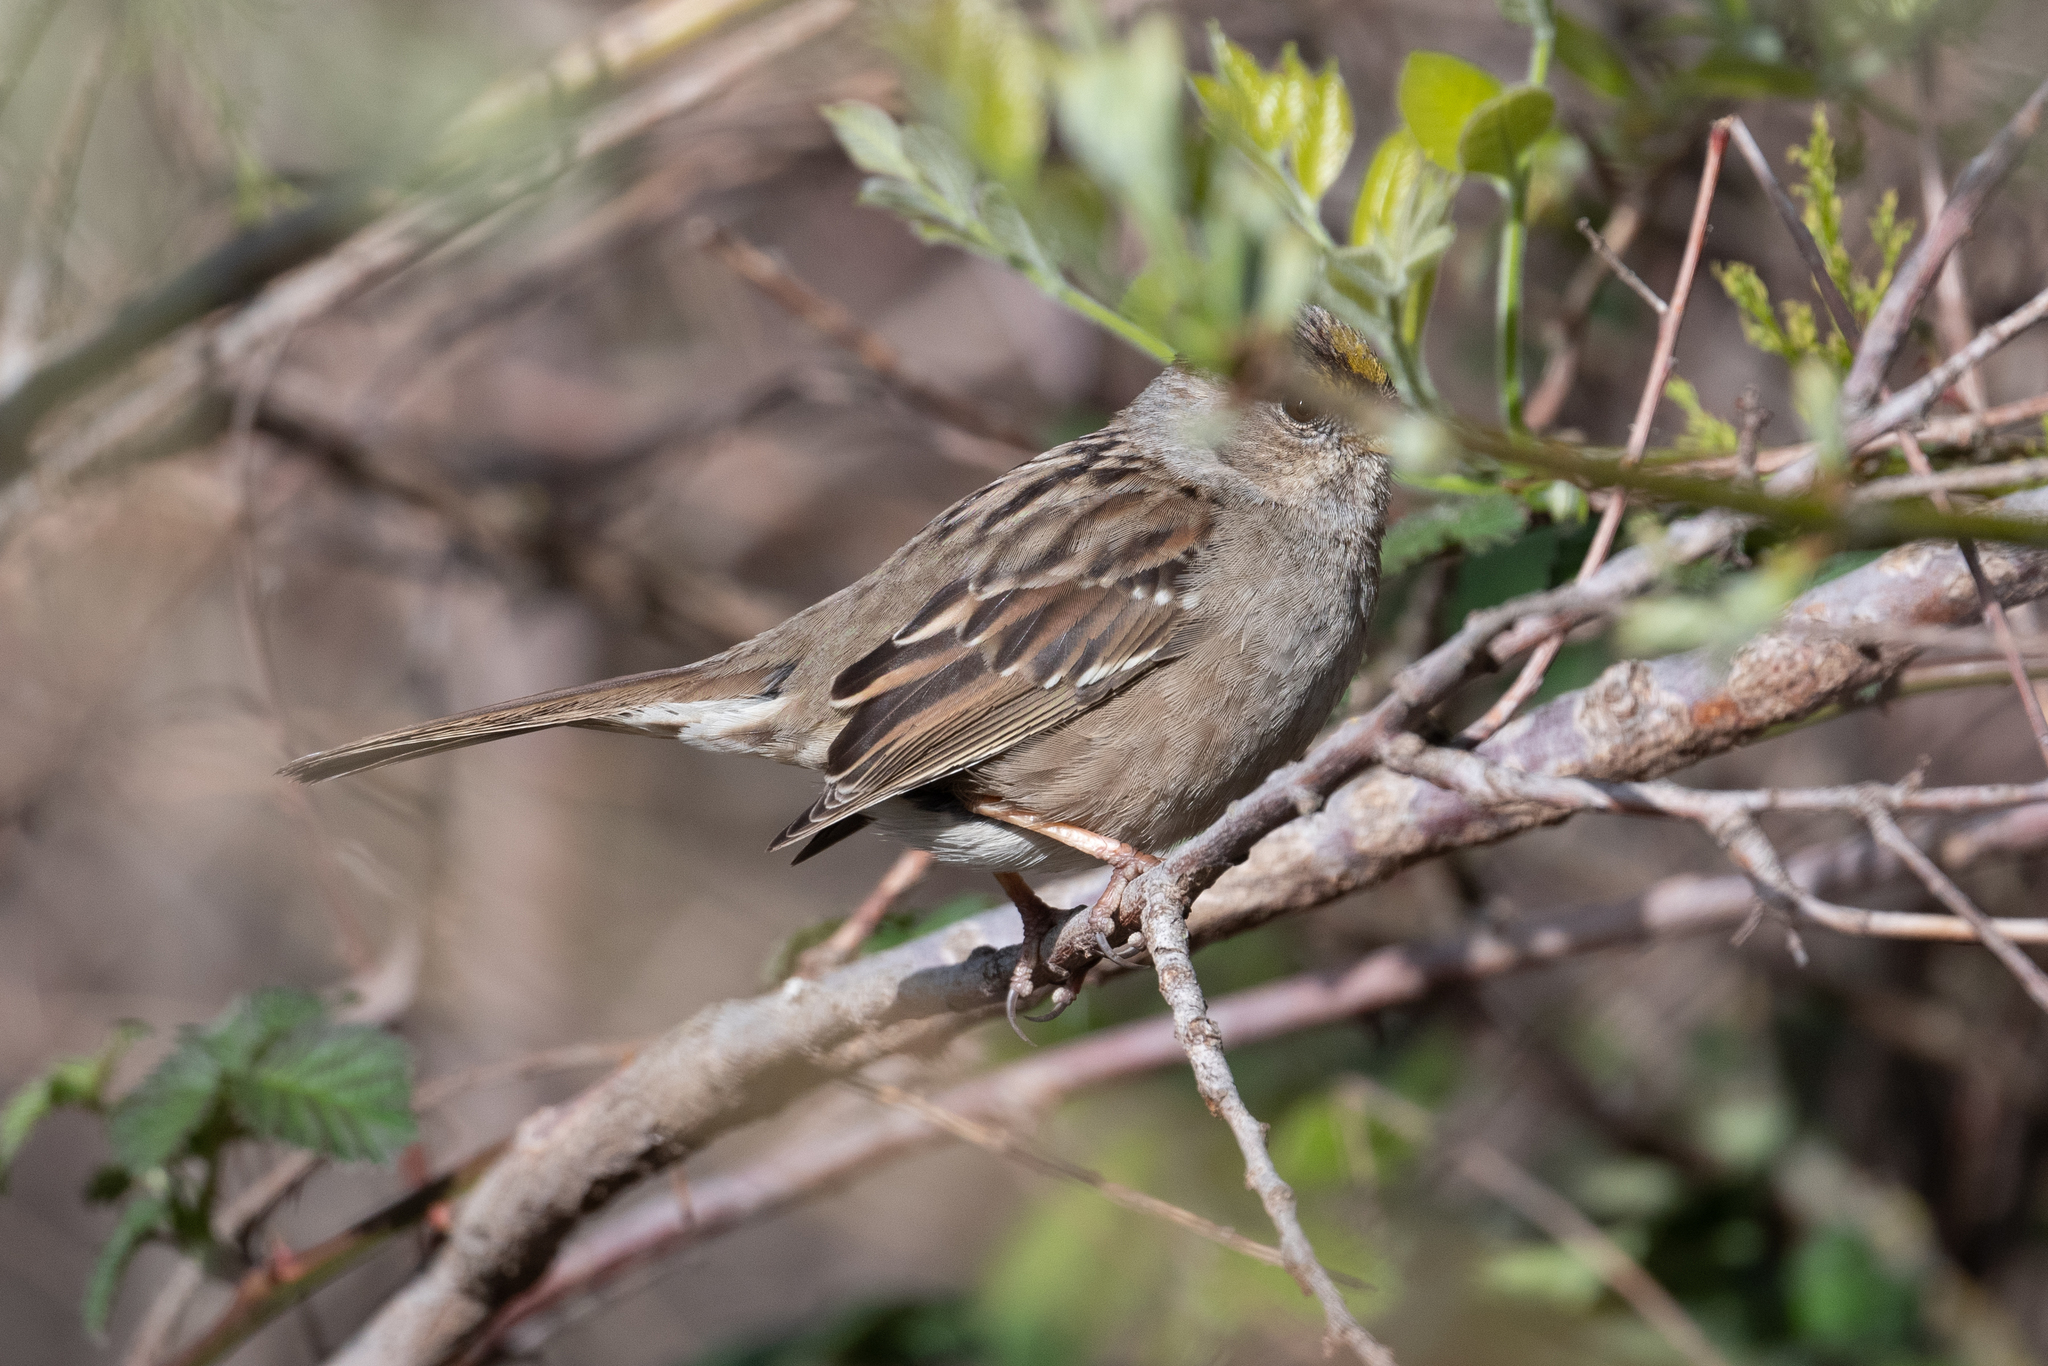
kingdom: Animalia
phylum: Chordata
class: Aves
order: Passeriformes
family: Passerellidae
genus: Zonotrichia
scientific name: Zonotrichia atricapilla
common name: Golden-crowned sparrow
